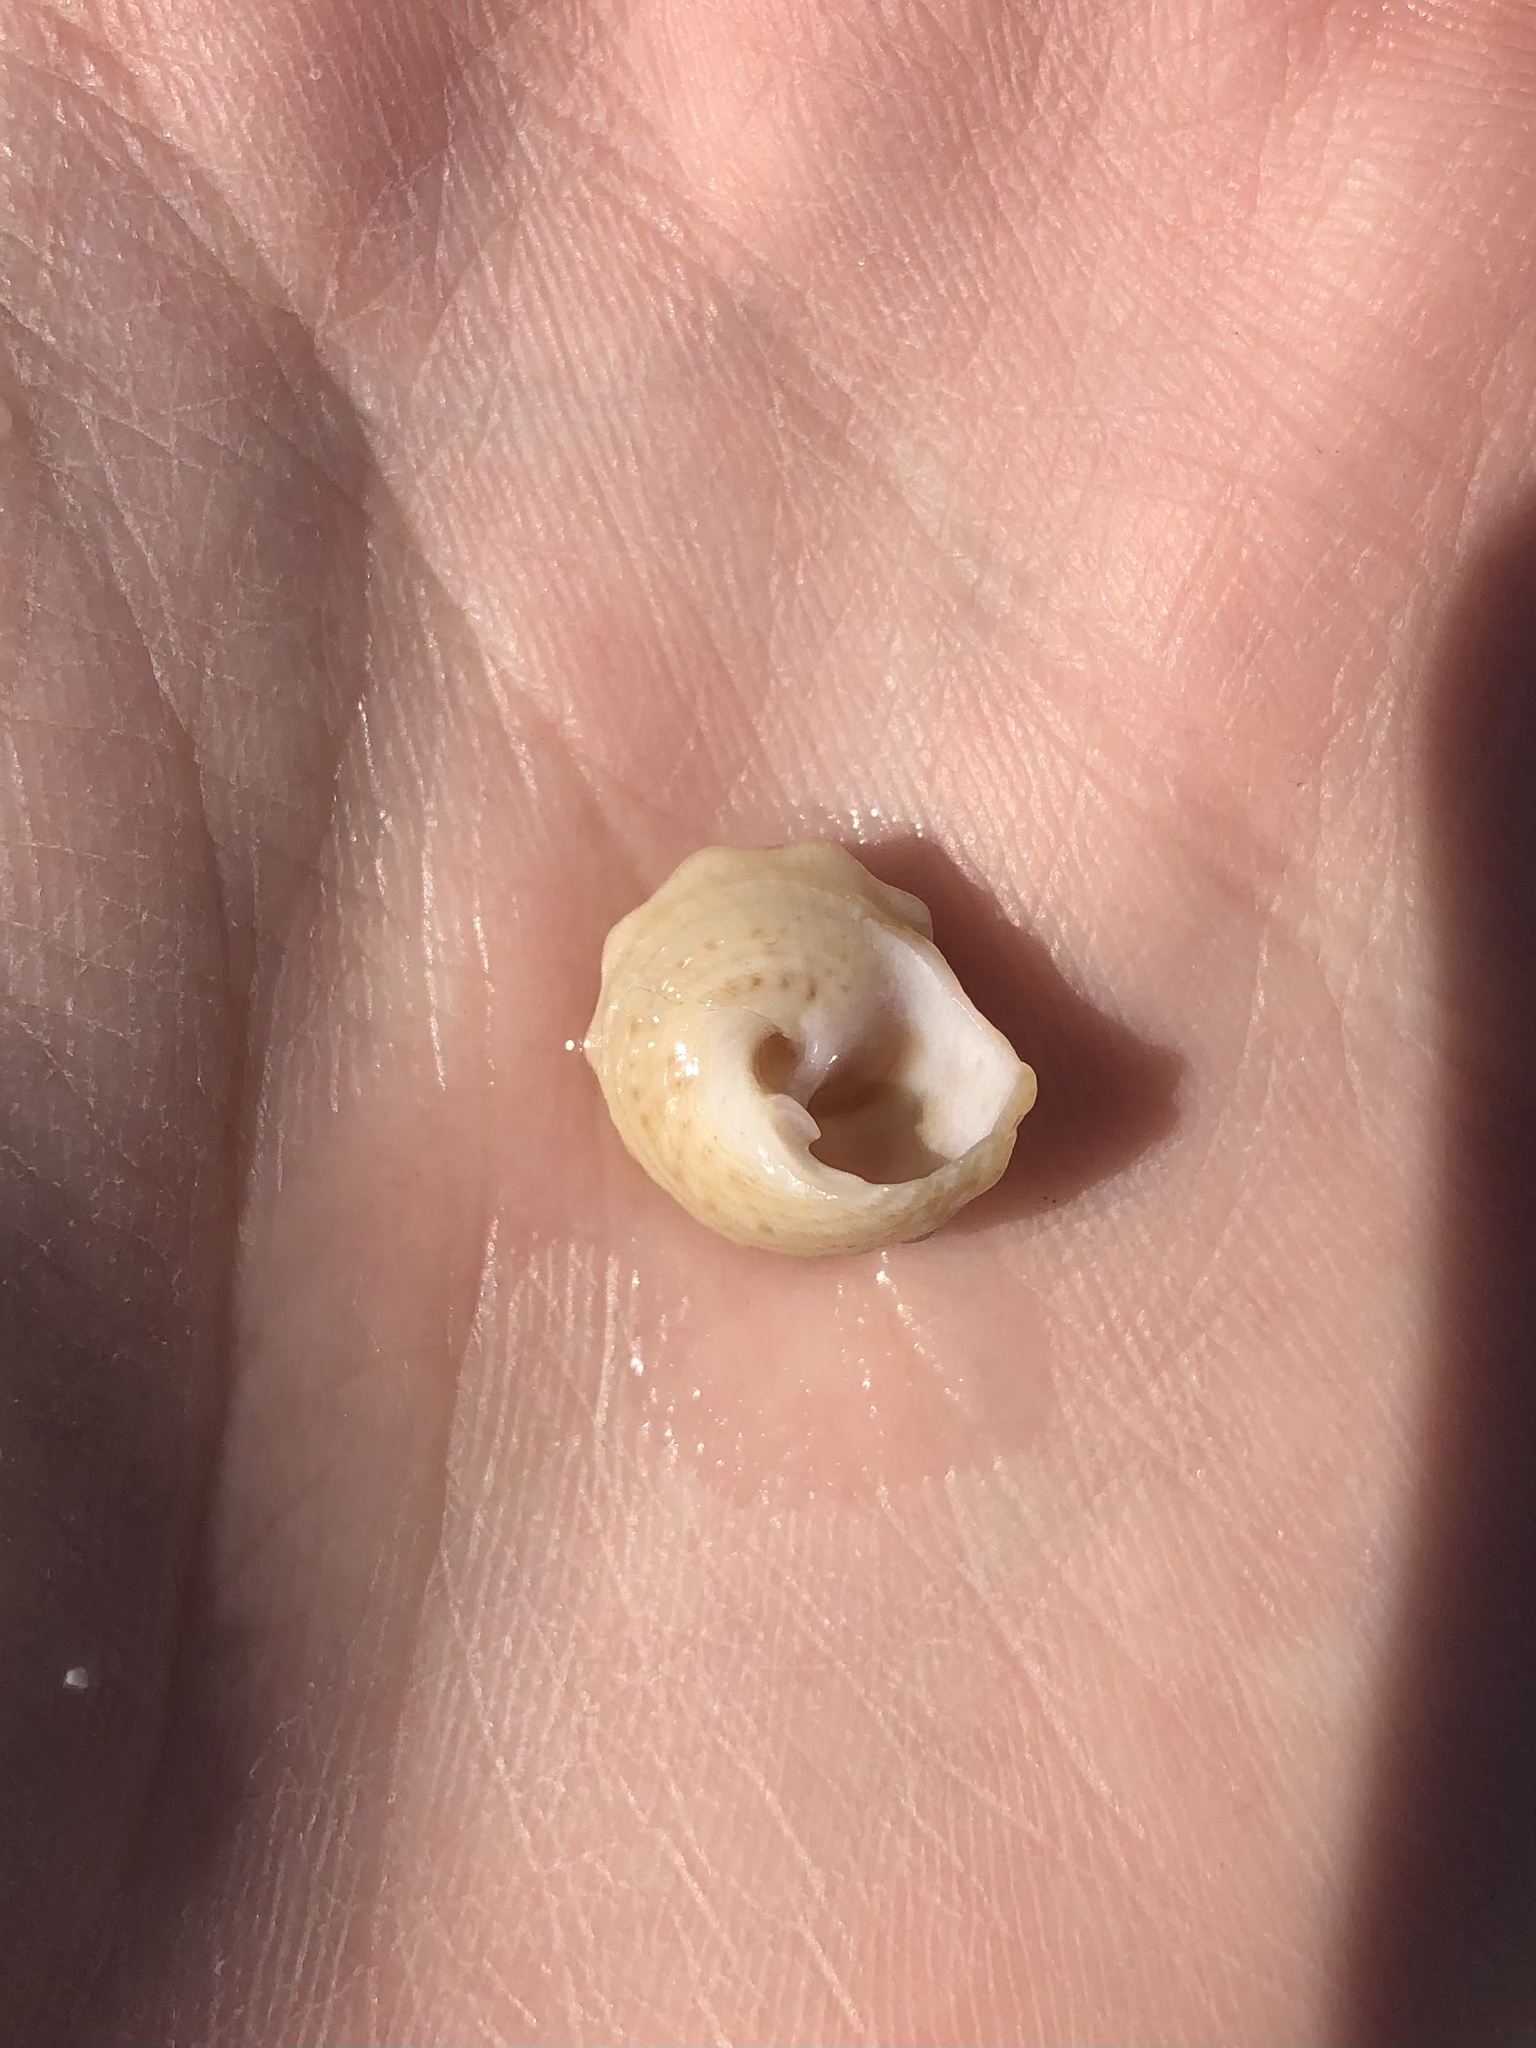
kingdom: Animalia
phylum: Mollusca
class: Gastropoda
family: Modulidae
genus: Modulus
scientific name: Modulus modulus
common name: Atlantic modulus
